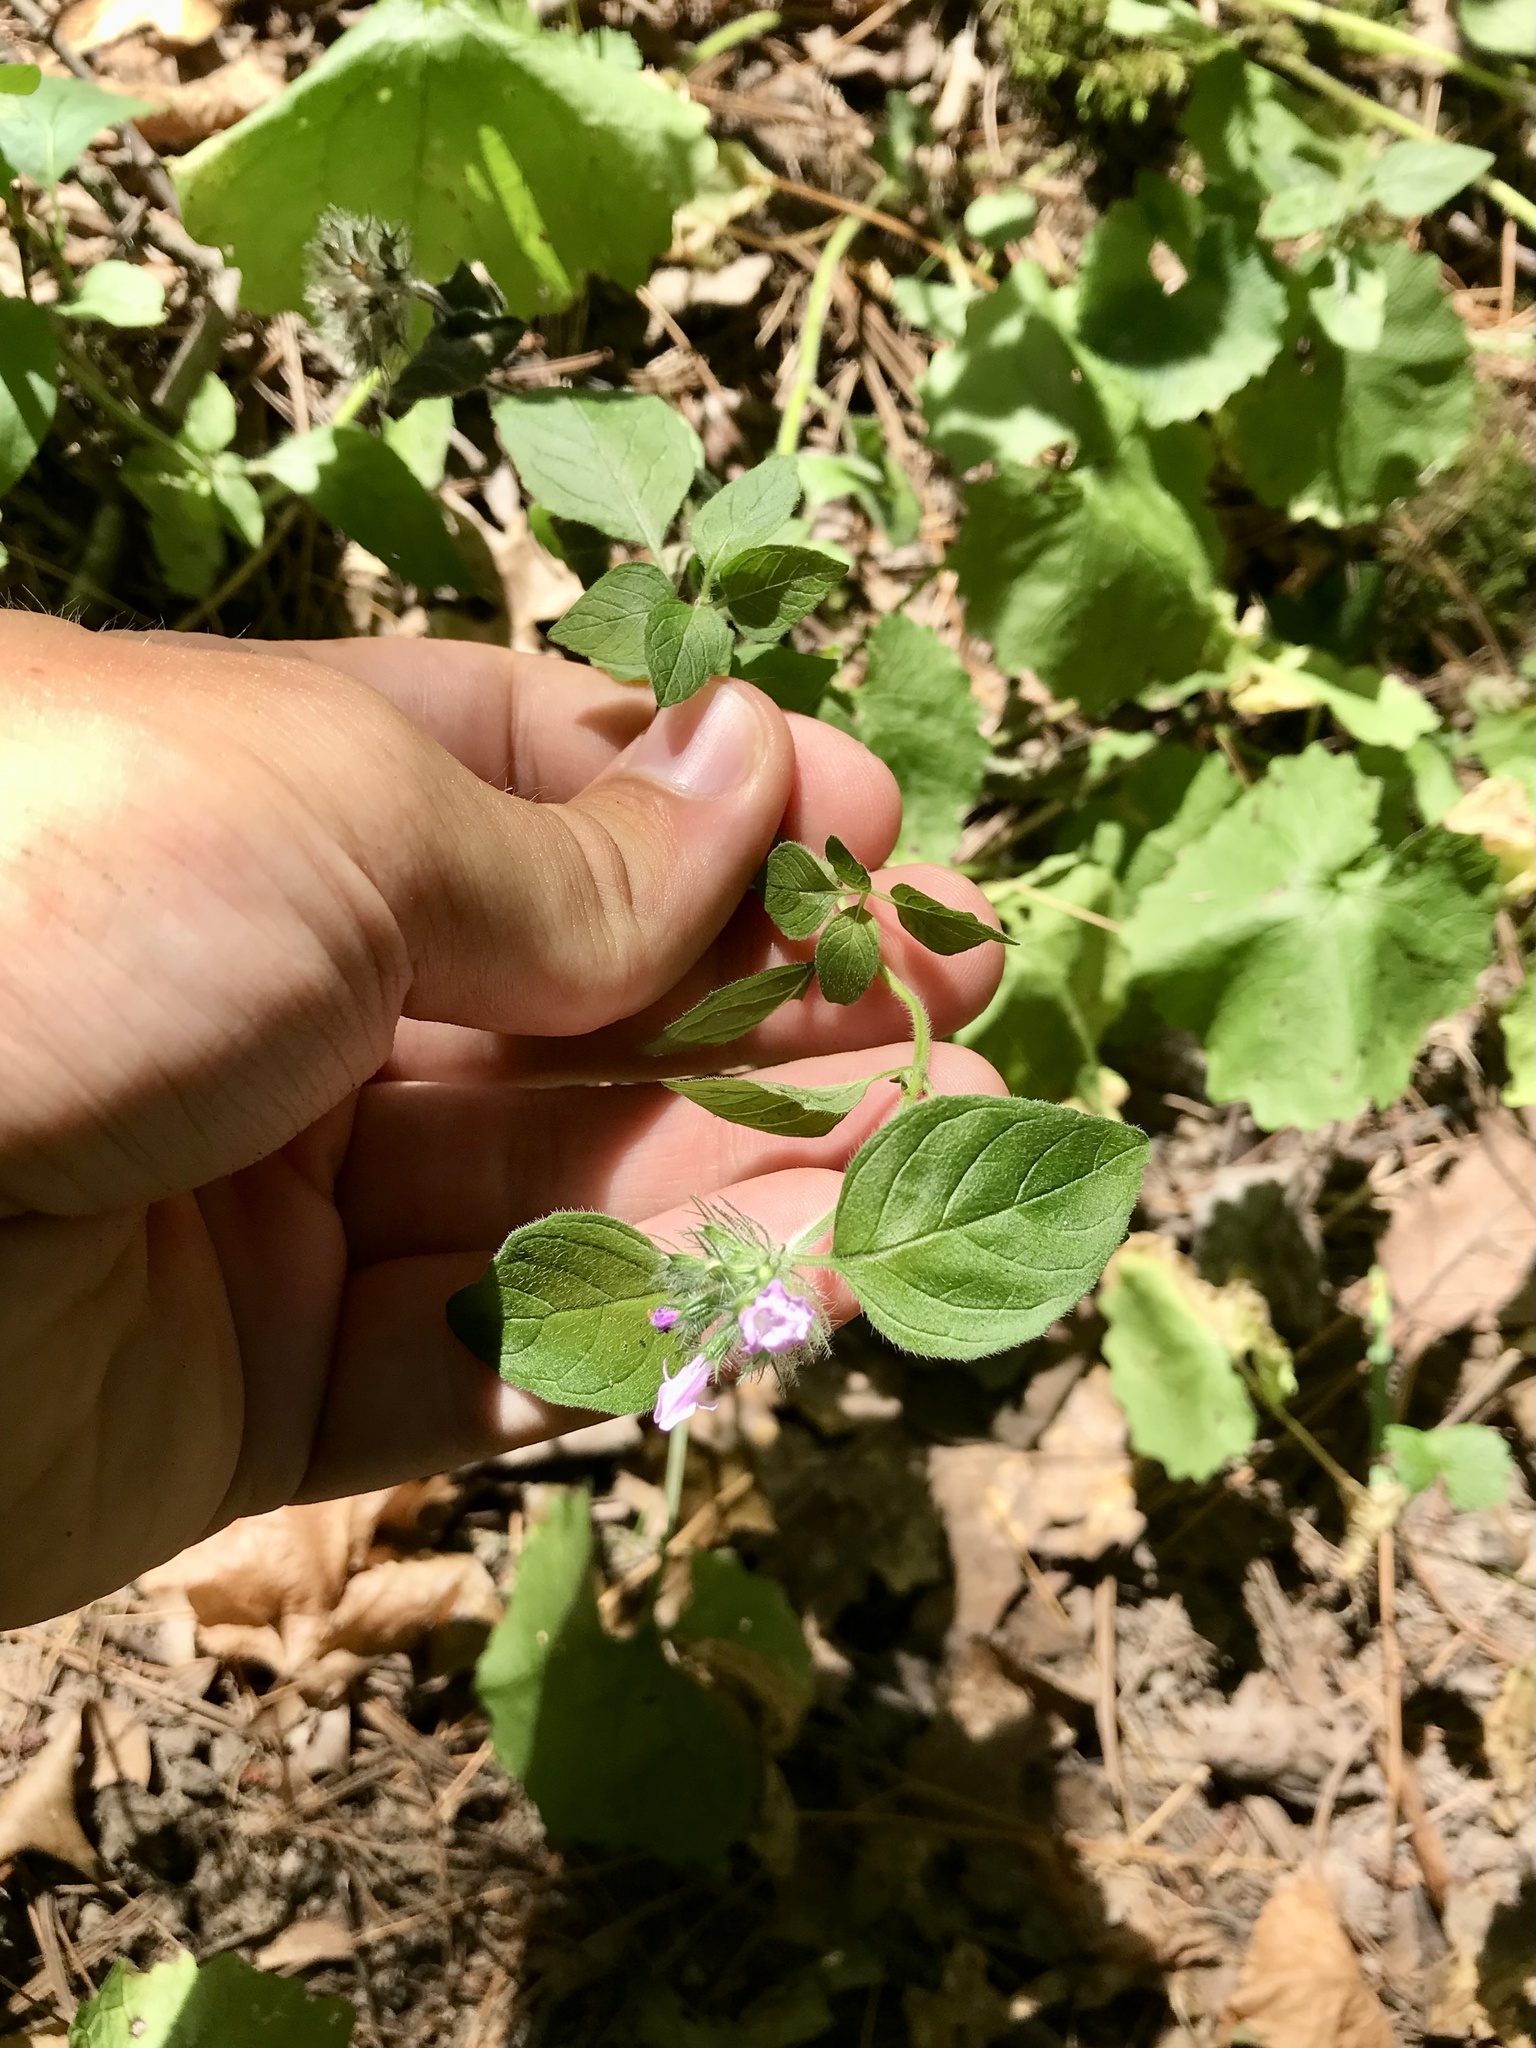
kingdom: Plantae
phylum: Tracheophyta
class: Magnoliopsida
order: Lamiales
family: Lamiaceae
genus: Clinopodium
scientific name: Clinopodium vulgare
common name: Wild basil
